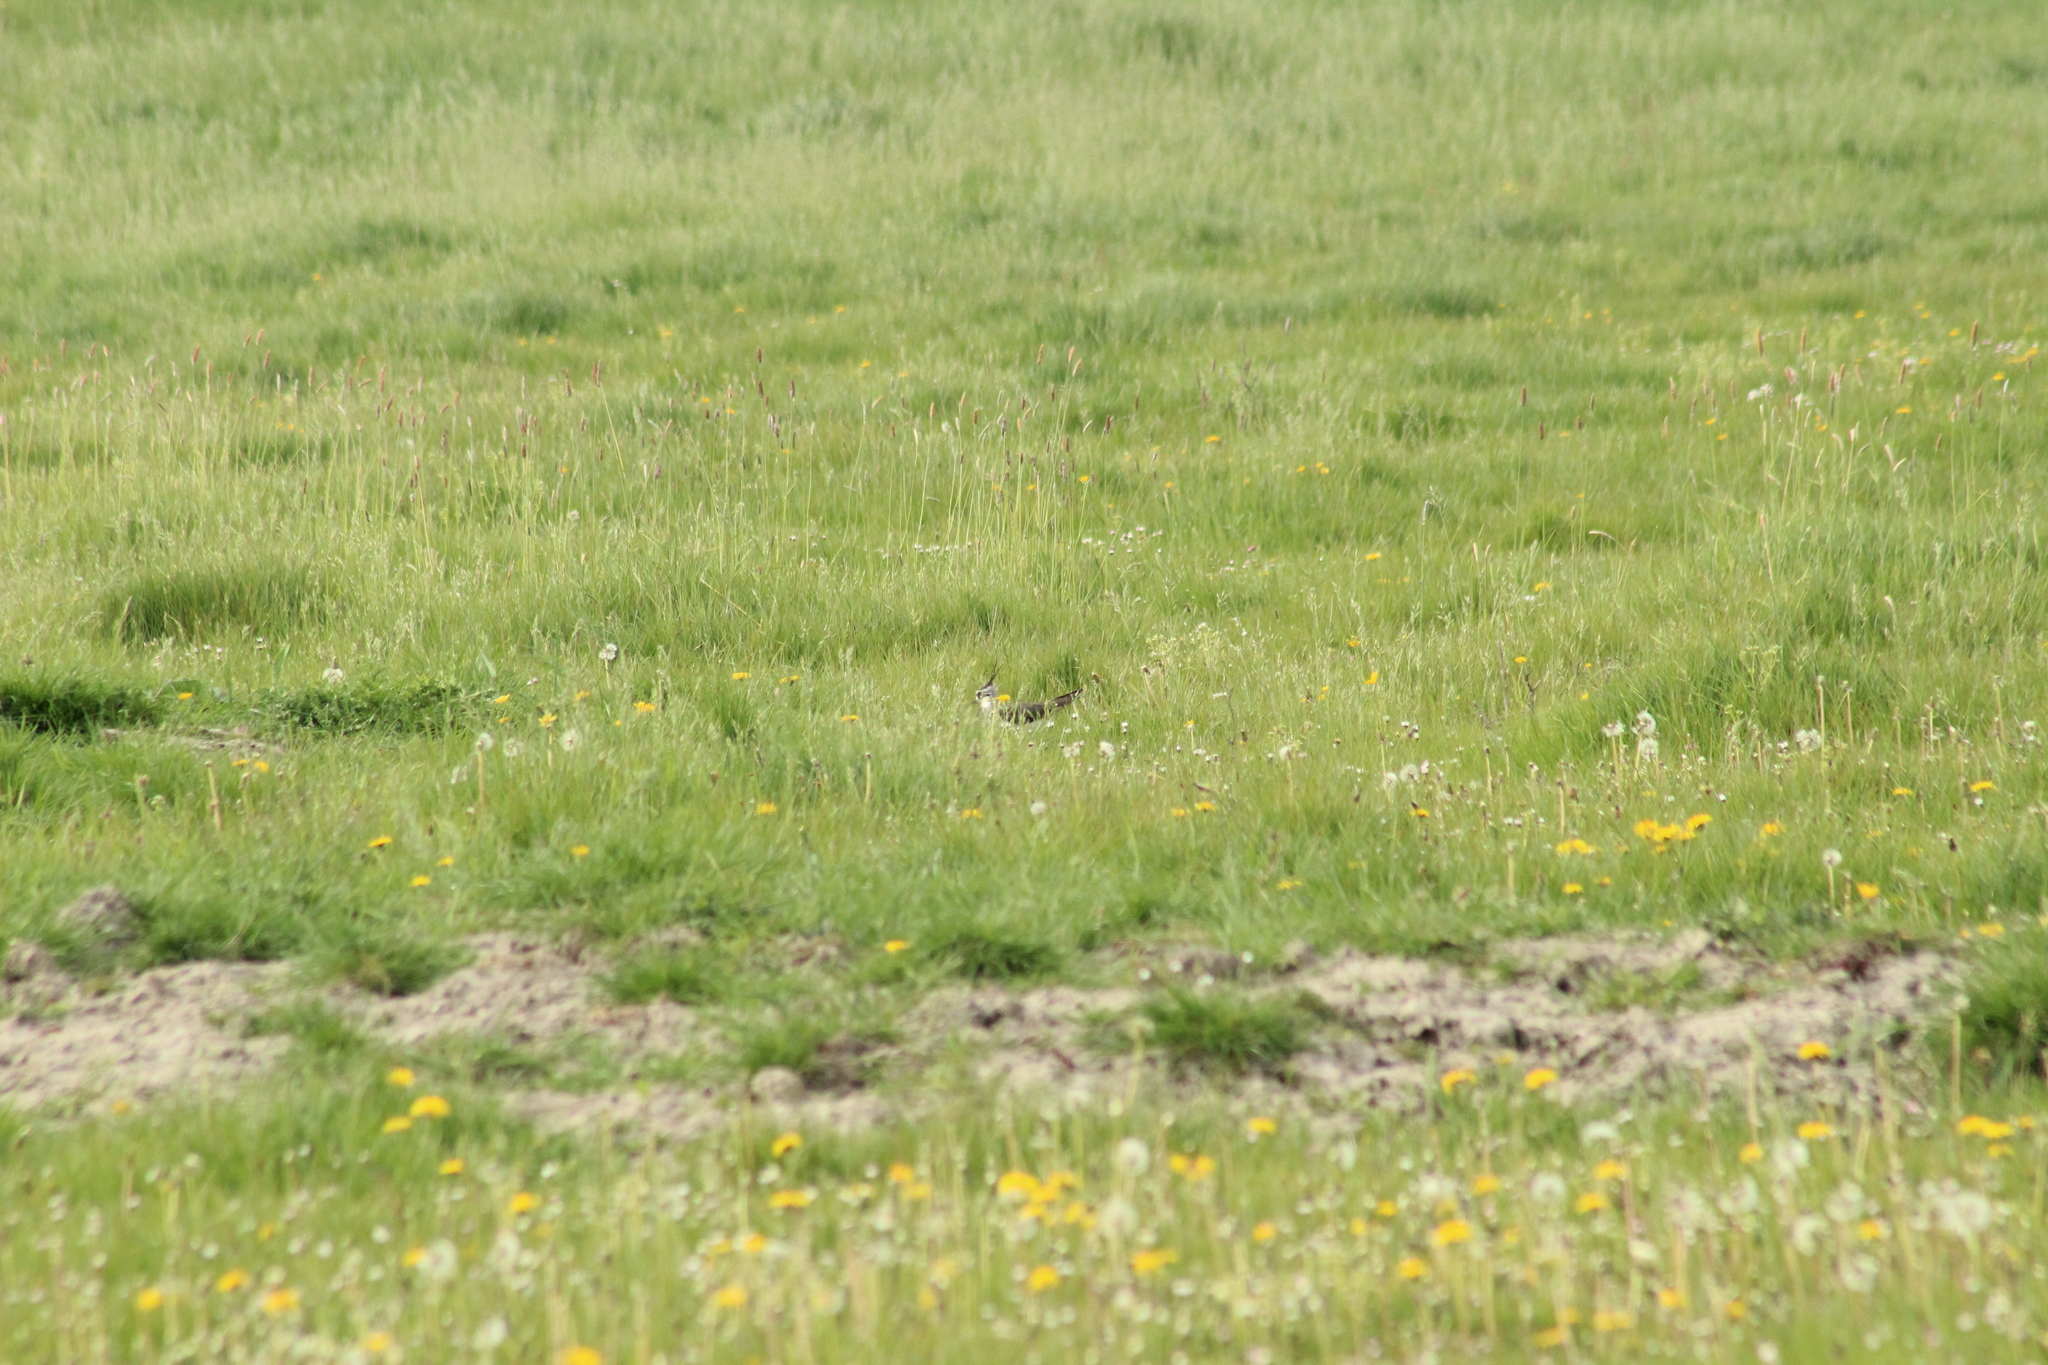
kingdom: Animalia
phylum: Chordata
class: Aves
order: Charadriiformes
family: Charadriidae
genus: Vanellus
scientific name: Vanellus vanellus
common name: Northern lapwing
